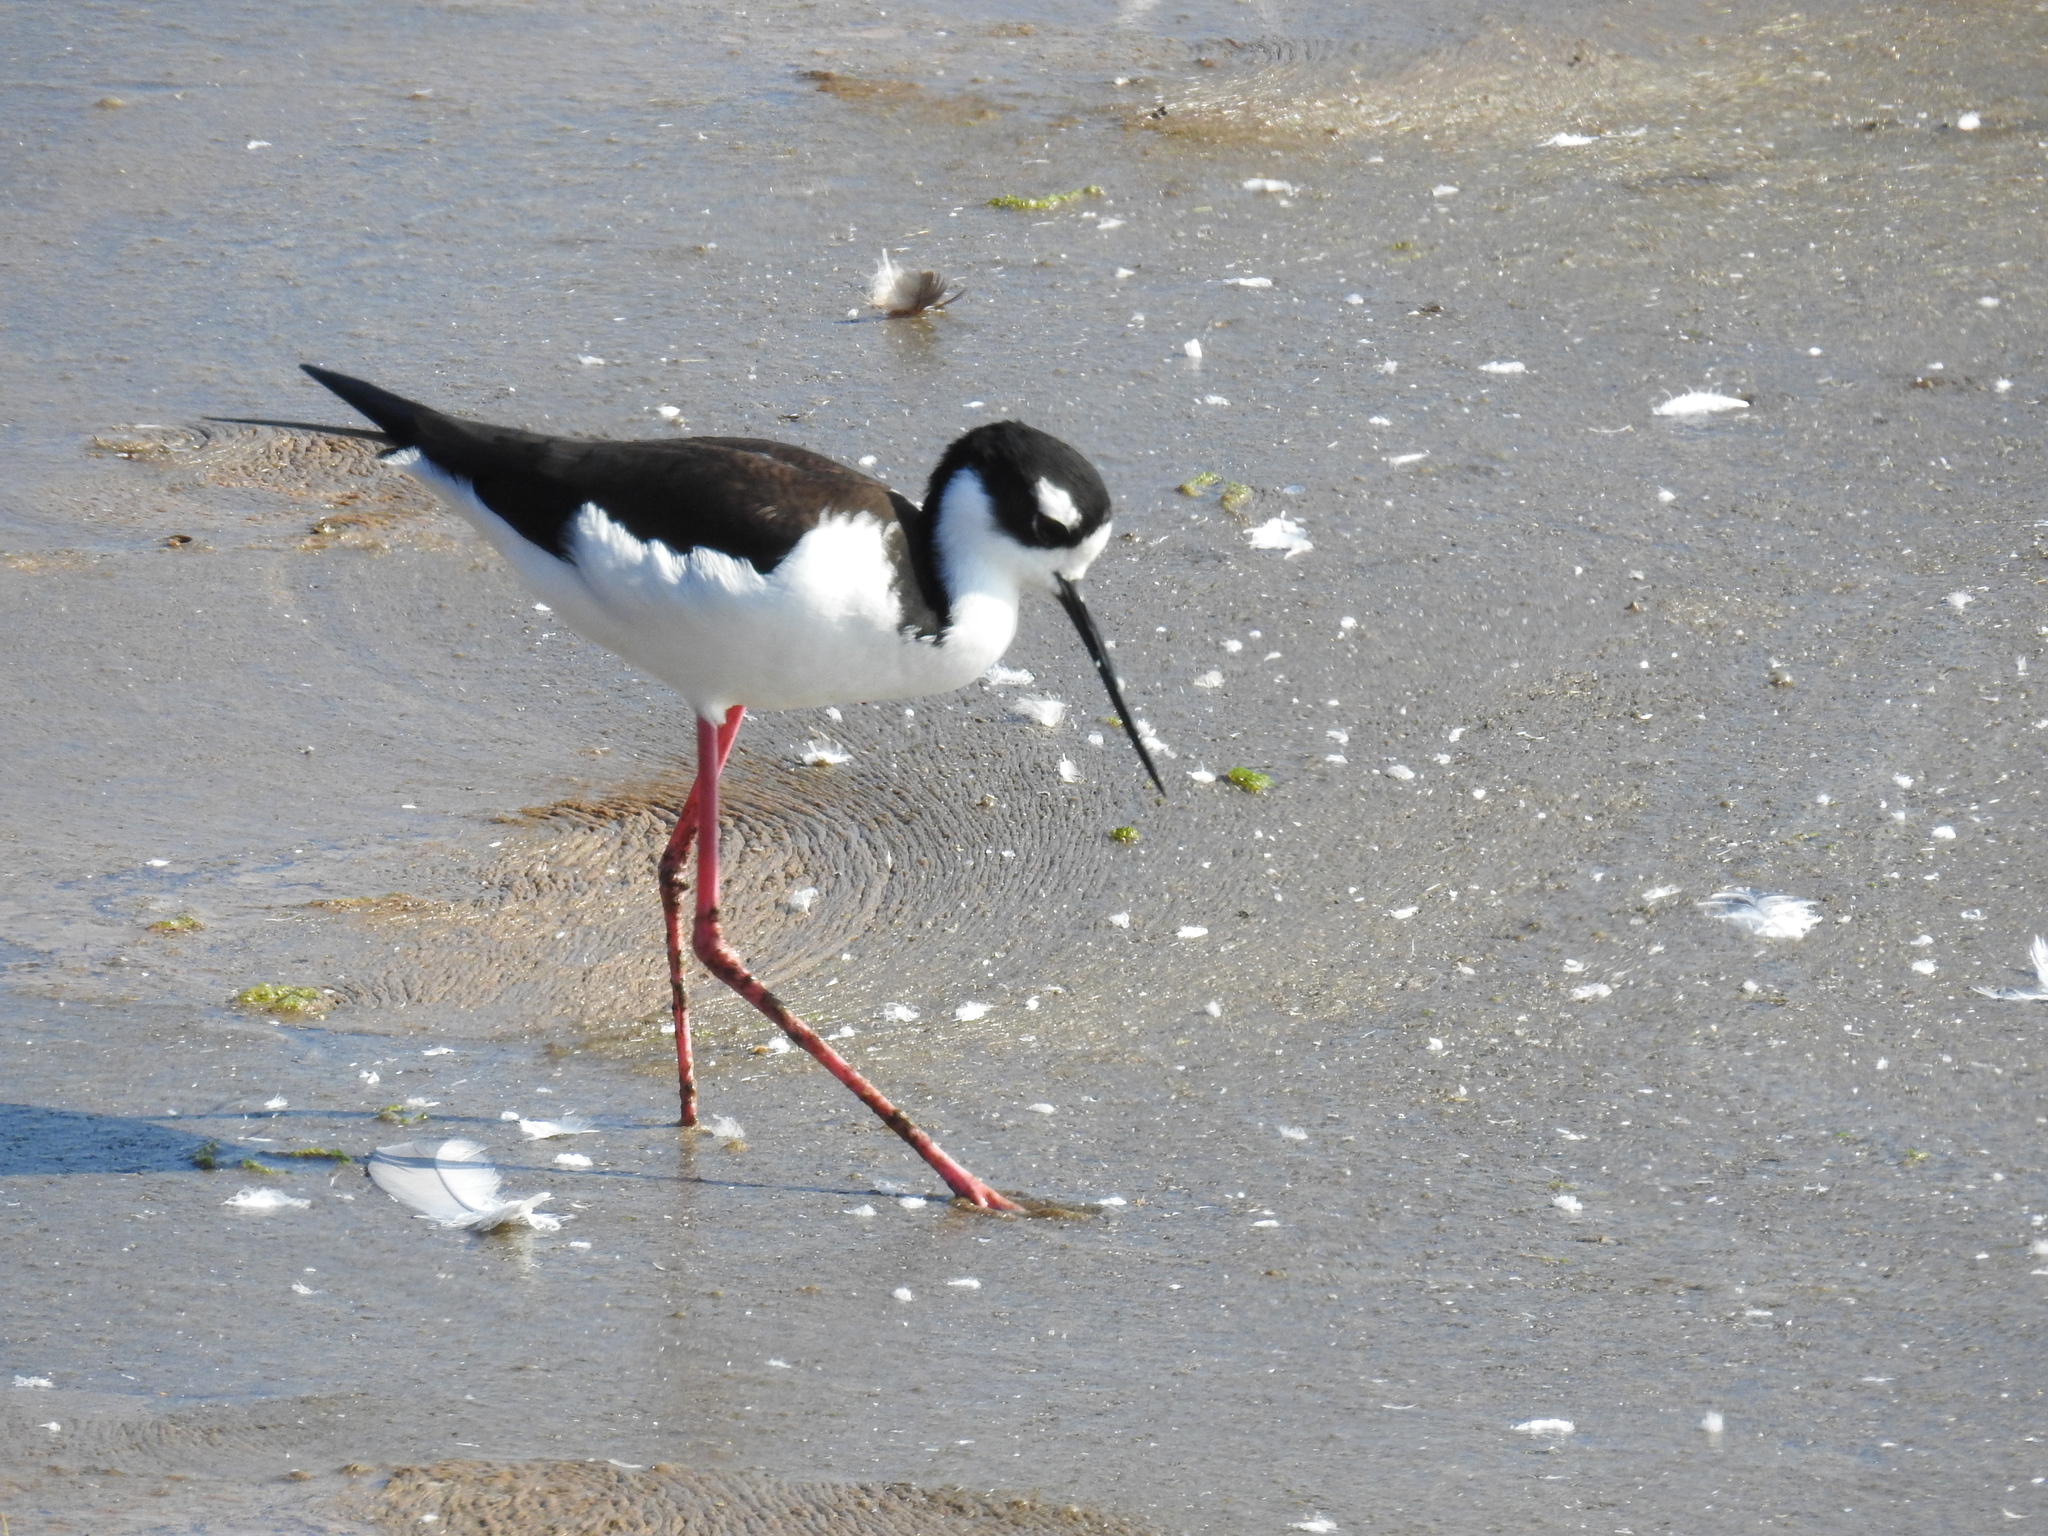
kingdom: Animalia
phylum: Chordata
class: Aves
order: Charadriiformes
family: Recurvirostridae
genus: Himantopus
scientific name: Himantopus mexicanus
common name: Black-necked stilt
